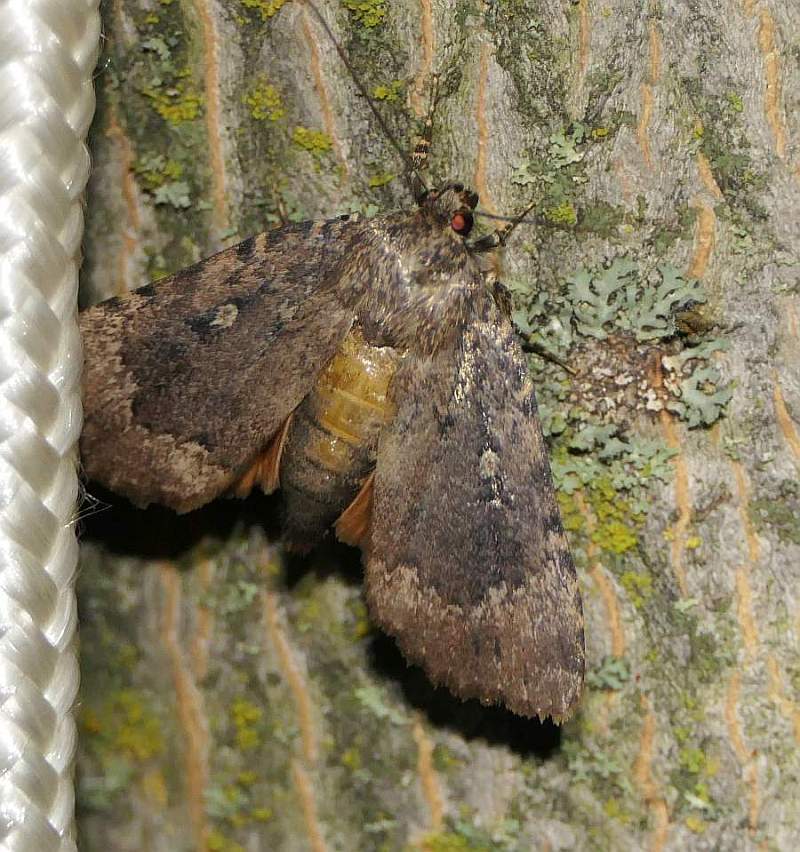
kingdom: Animalia
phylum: Arthropoda
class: Insecta
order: Lepidoptera
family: Noctuidae
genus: Amphipyra
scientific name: Amphipyra pyramidoides
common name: American copper underwing
